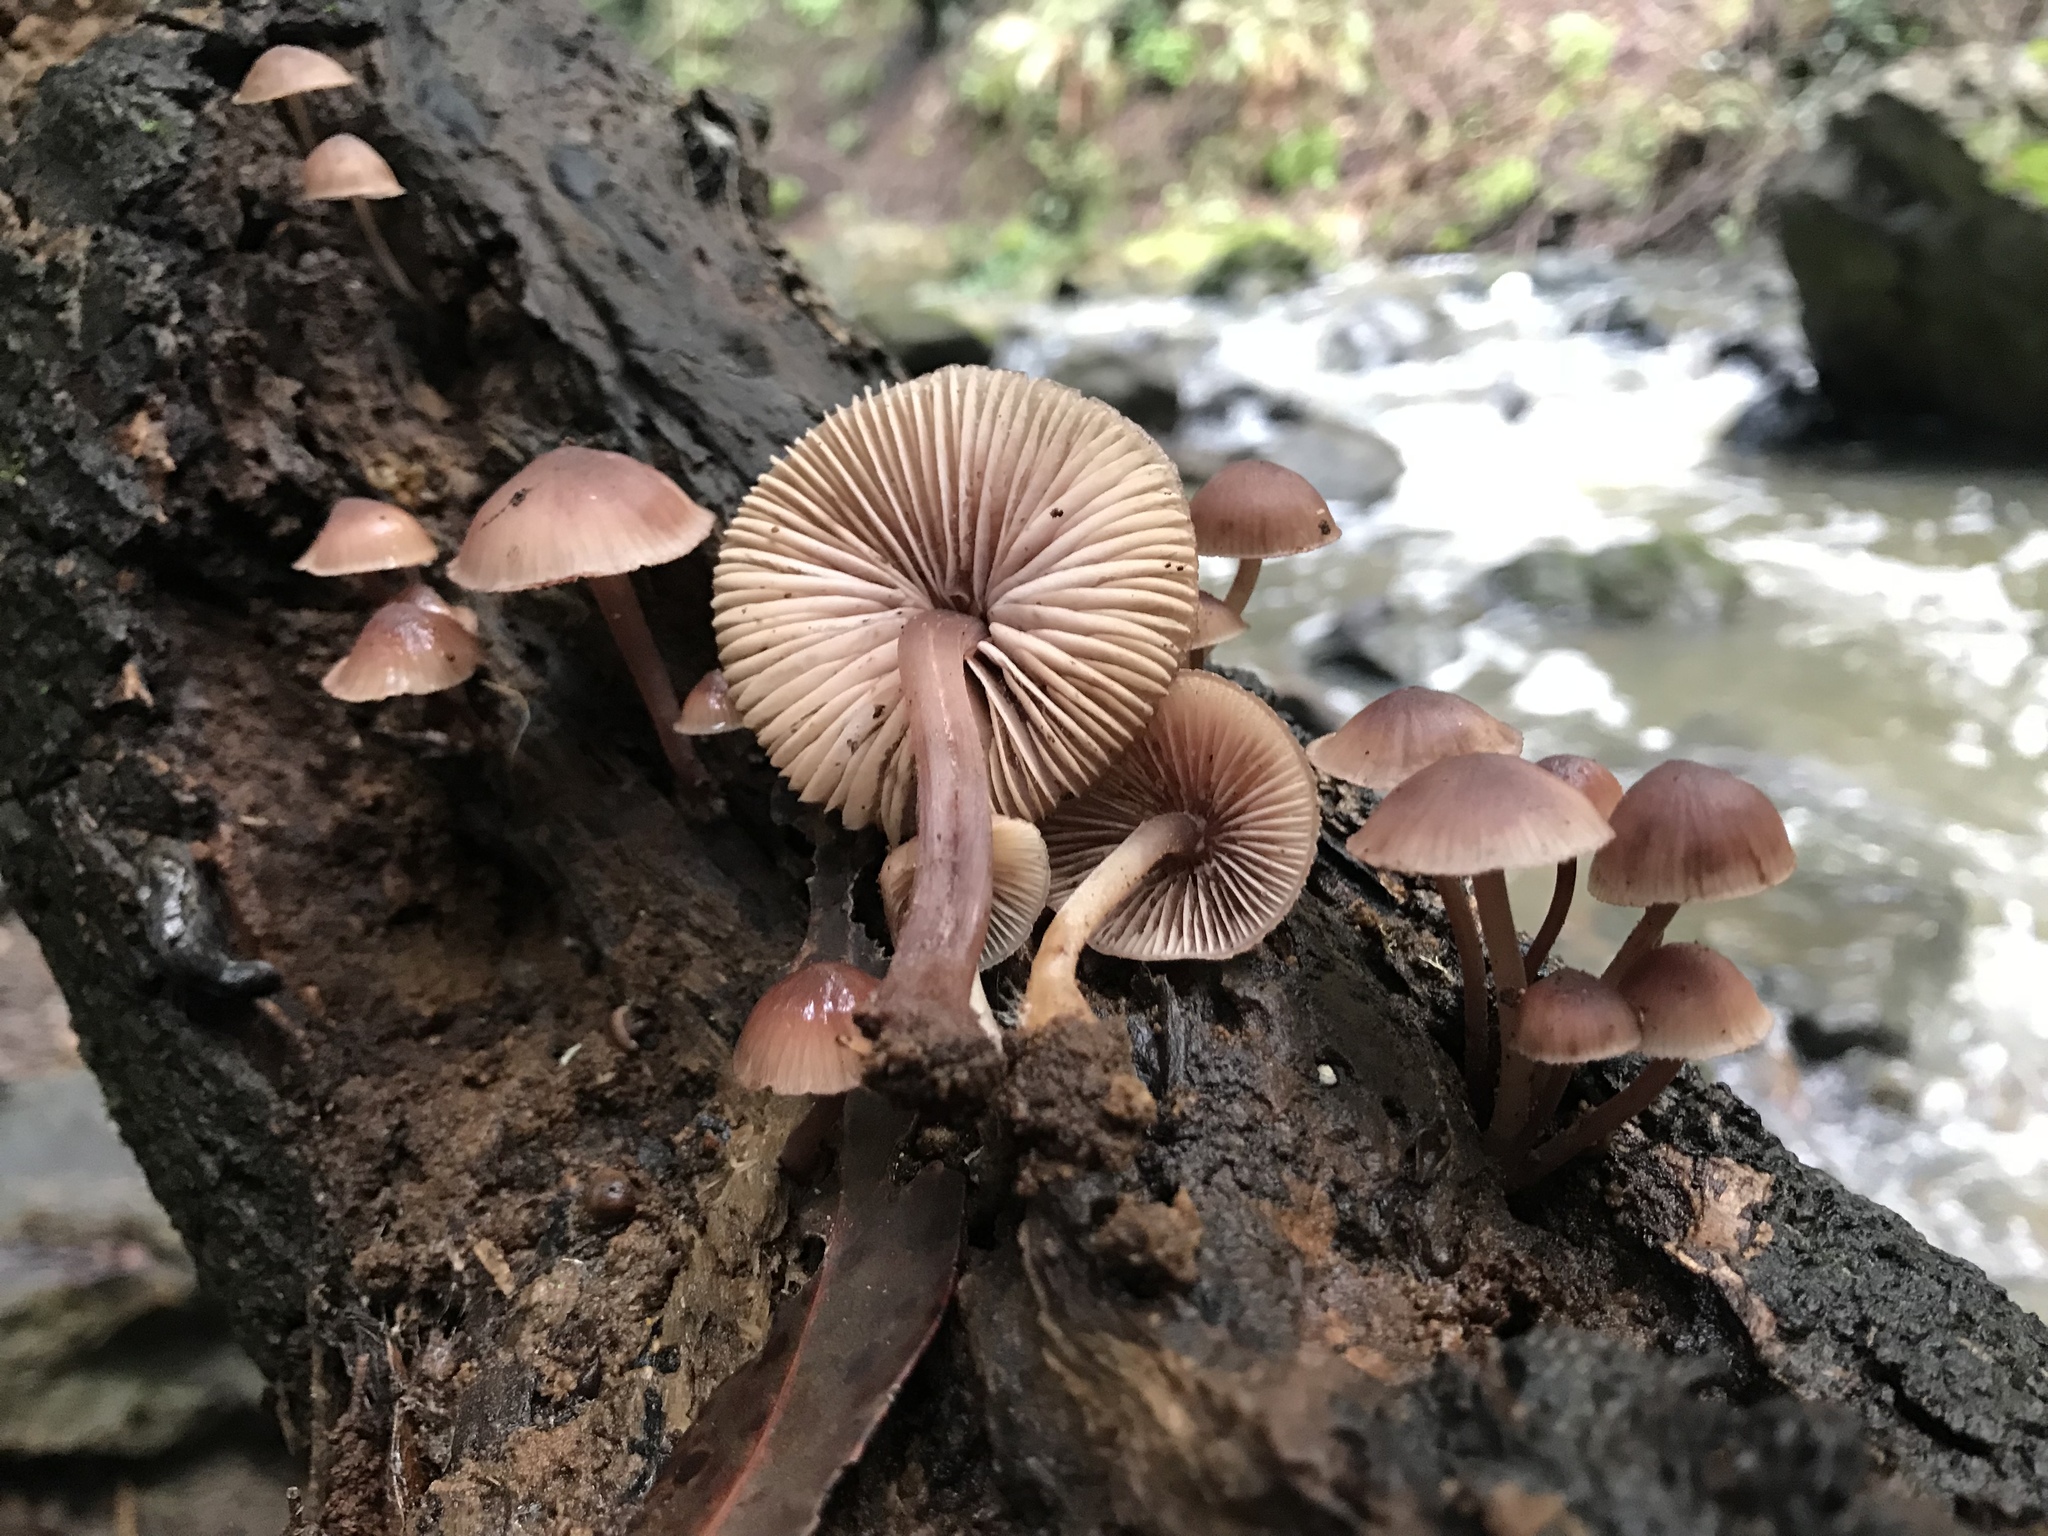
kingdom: Fungi
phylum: Basidiomycota
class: Agaricomycetes
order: Agaricales
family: Mycenaceae
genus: Mycena
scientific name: Mycena haematopus
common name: Burgundydrop bonnet
